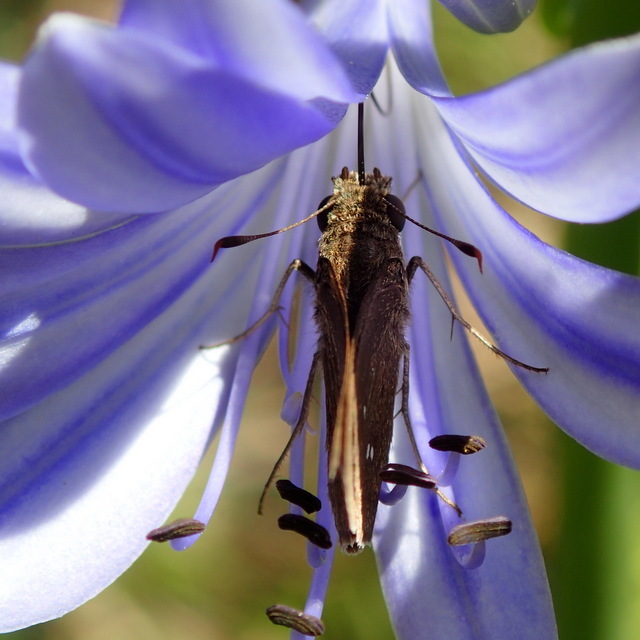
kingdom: Animalia
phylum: Arthropoda
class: Insecta
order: Lepidoptera
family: Hesperiidae
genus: Oligoria
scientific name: Oligoria maculata
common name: Twin-spot skipper
